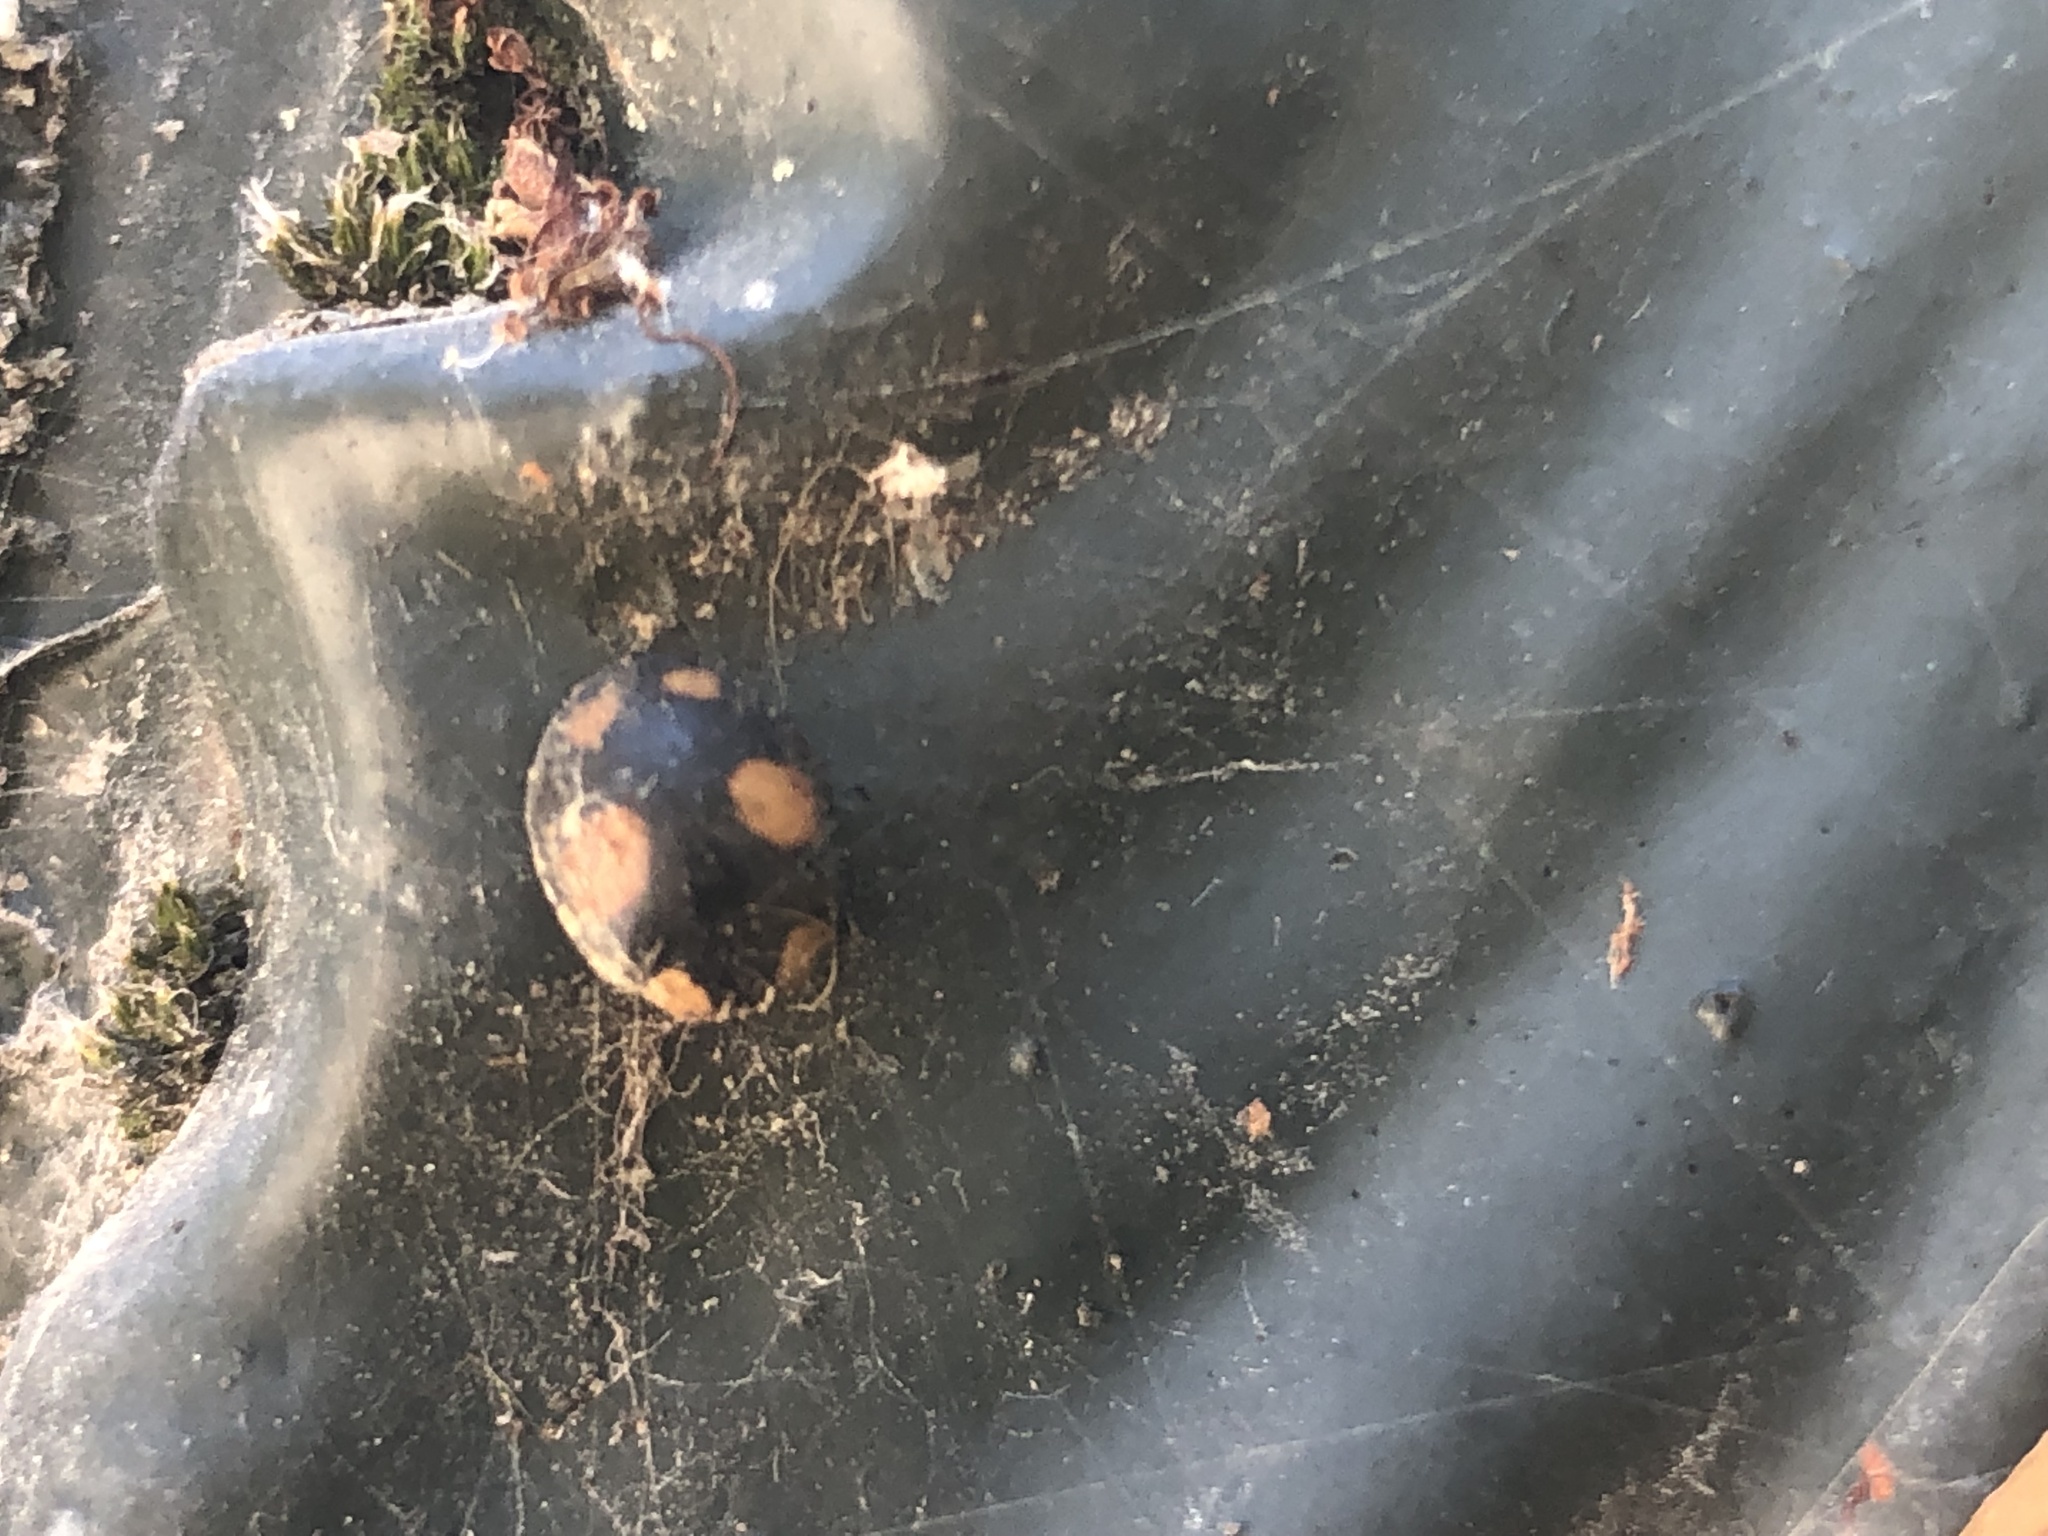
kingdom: Animalia
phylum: Arthropoda
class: Insecta
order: Coleoptera
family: Coccinellidae
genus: Harmonia
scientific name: Harmonia axyridis
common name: Harlequin ladybird
